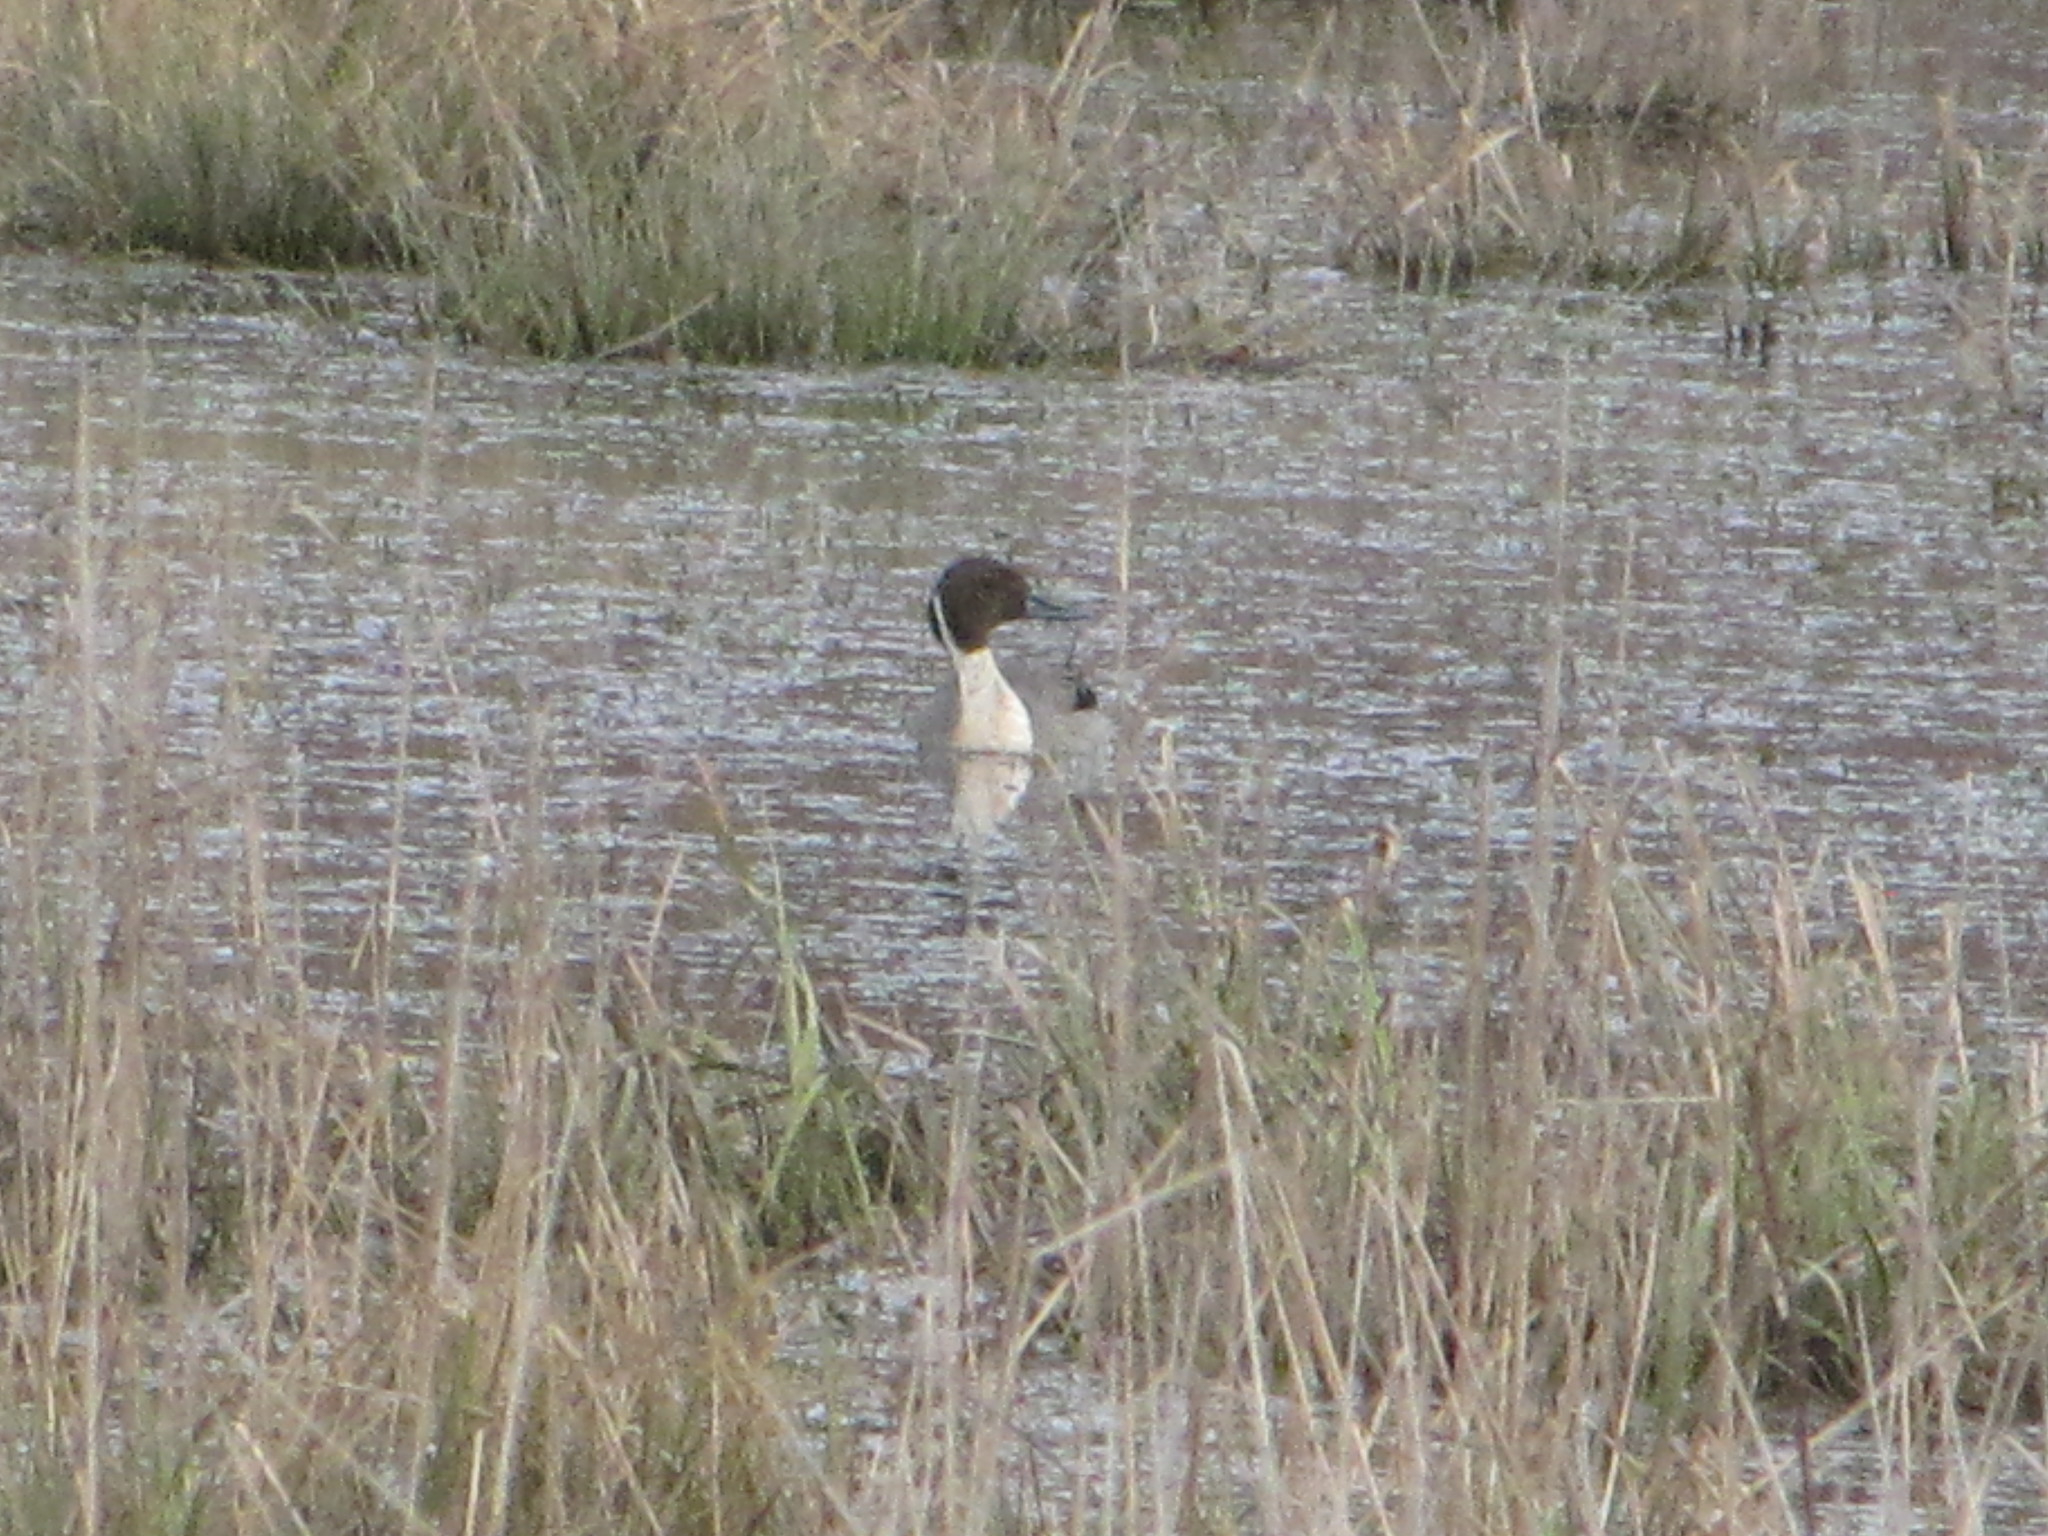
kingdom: Animalia
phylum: Chordata
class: Aves
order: Anseriformes
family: Anatidae
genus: Anas
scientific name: Anas acuta
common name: Northern pintail
